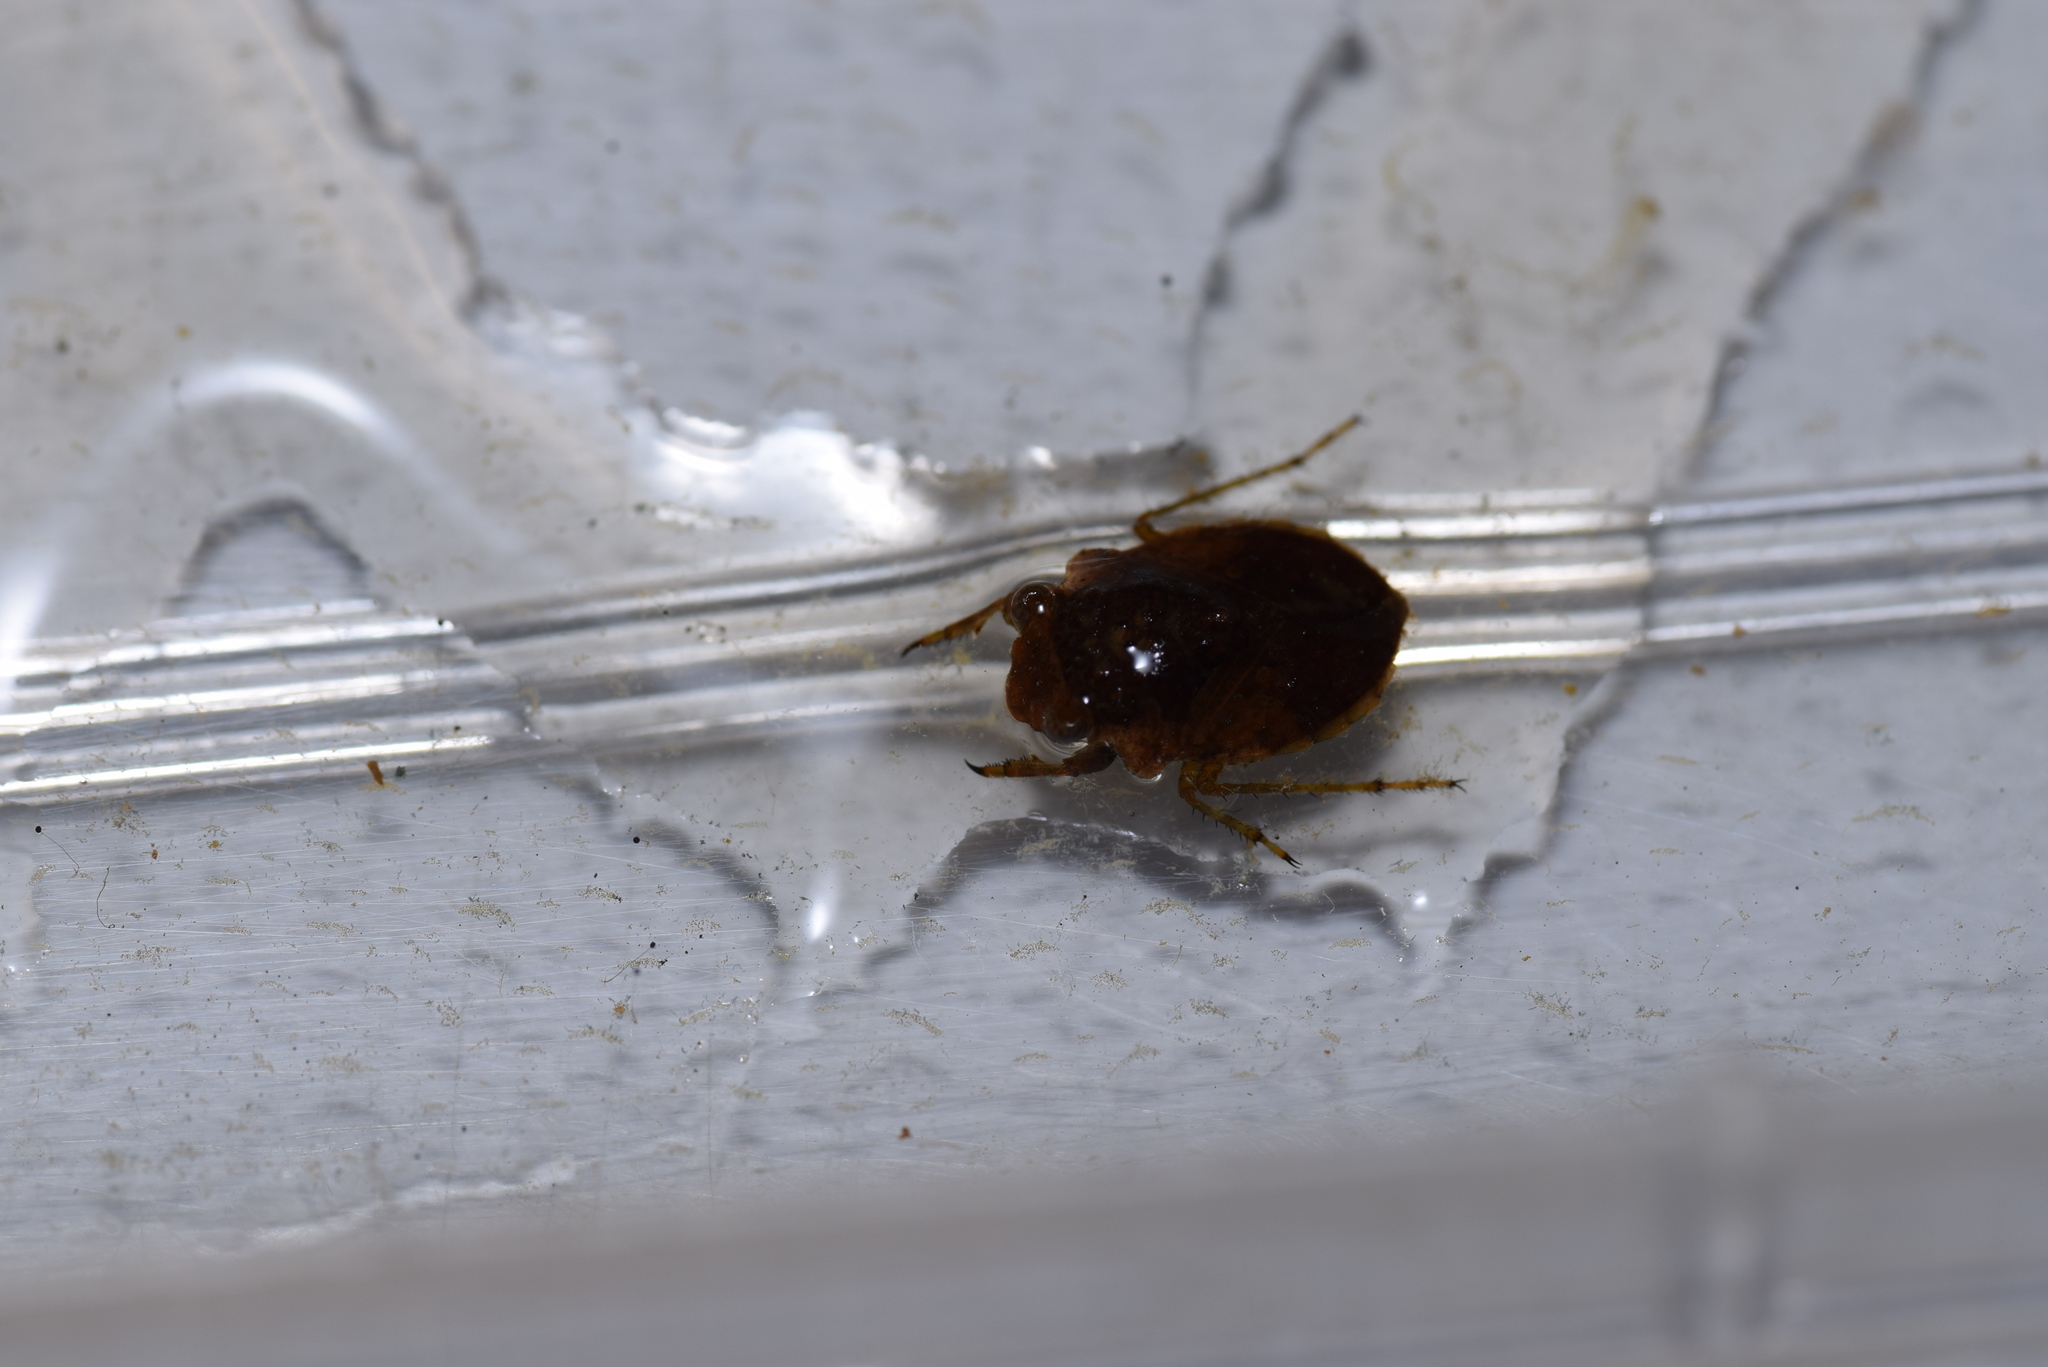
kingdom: Animalia
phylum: Arthropoda
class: Insecta
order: Hemiptera
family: Gelastocoridae
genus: Gelastocoris
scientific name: Gelastocoris oculatus
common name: Toad bug
